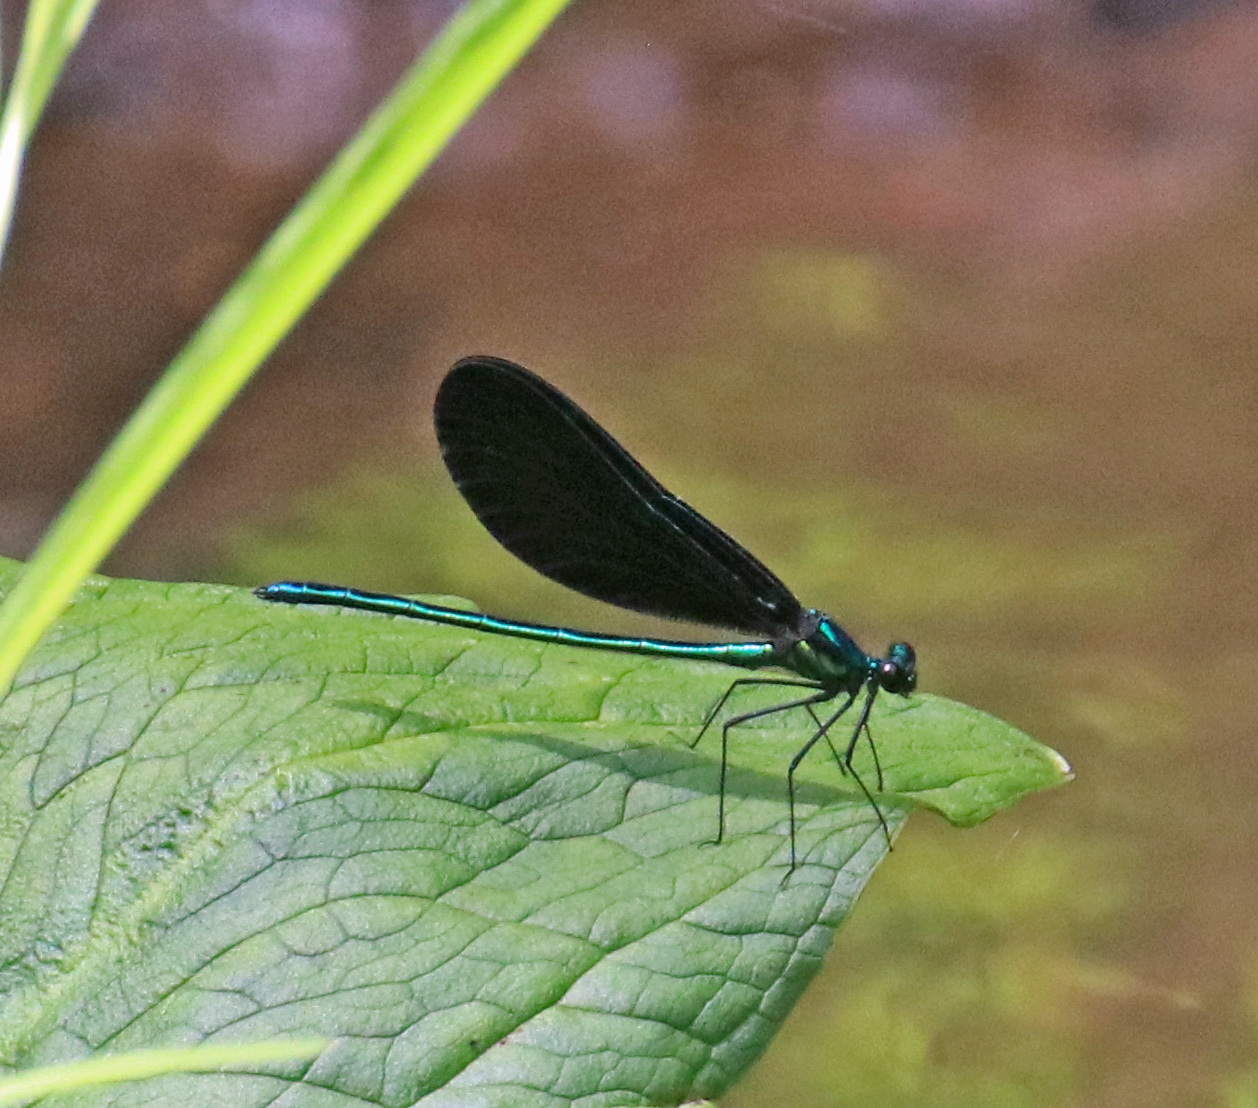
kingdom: Animalia
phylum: Arthropoda
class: Insecta
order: Odonata
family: Calopterygidae
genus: Calopteryx
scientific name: Calopteryx maculata
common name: Ebony jewelwing
